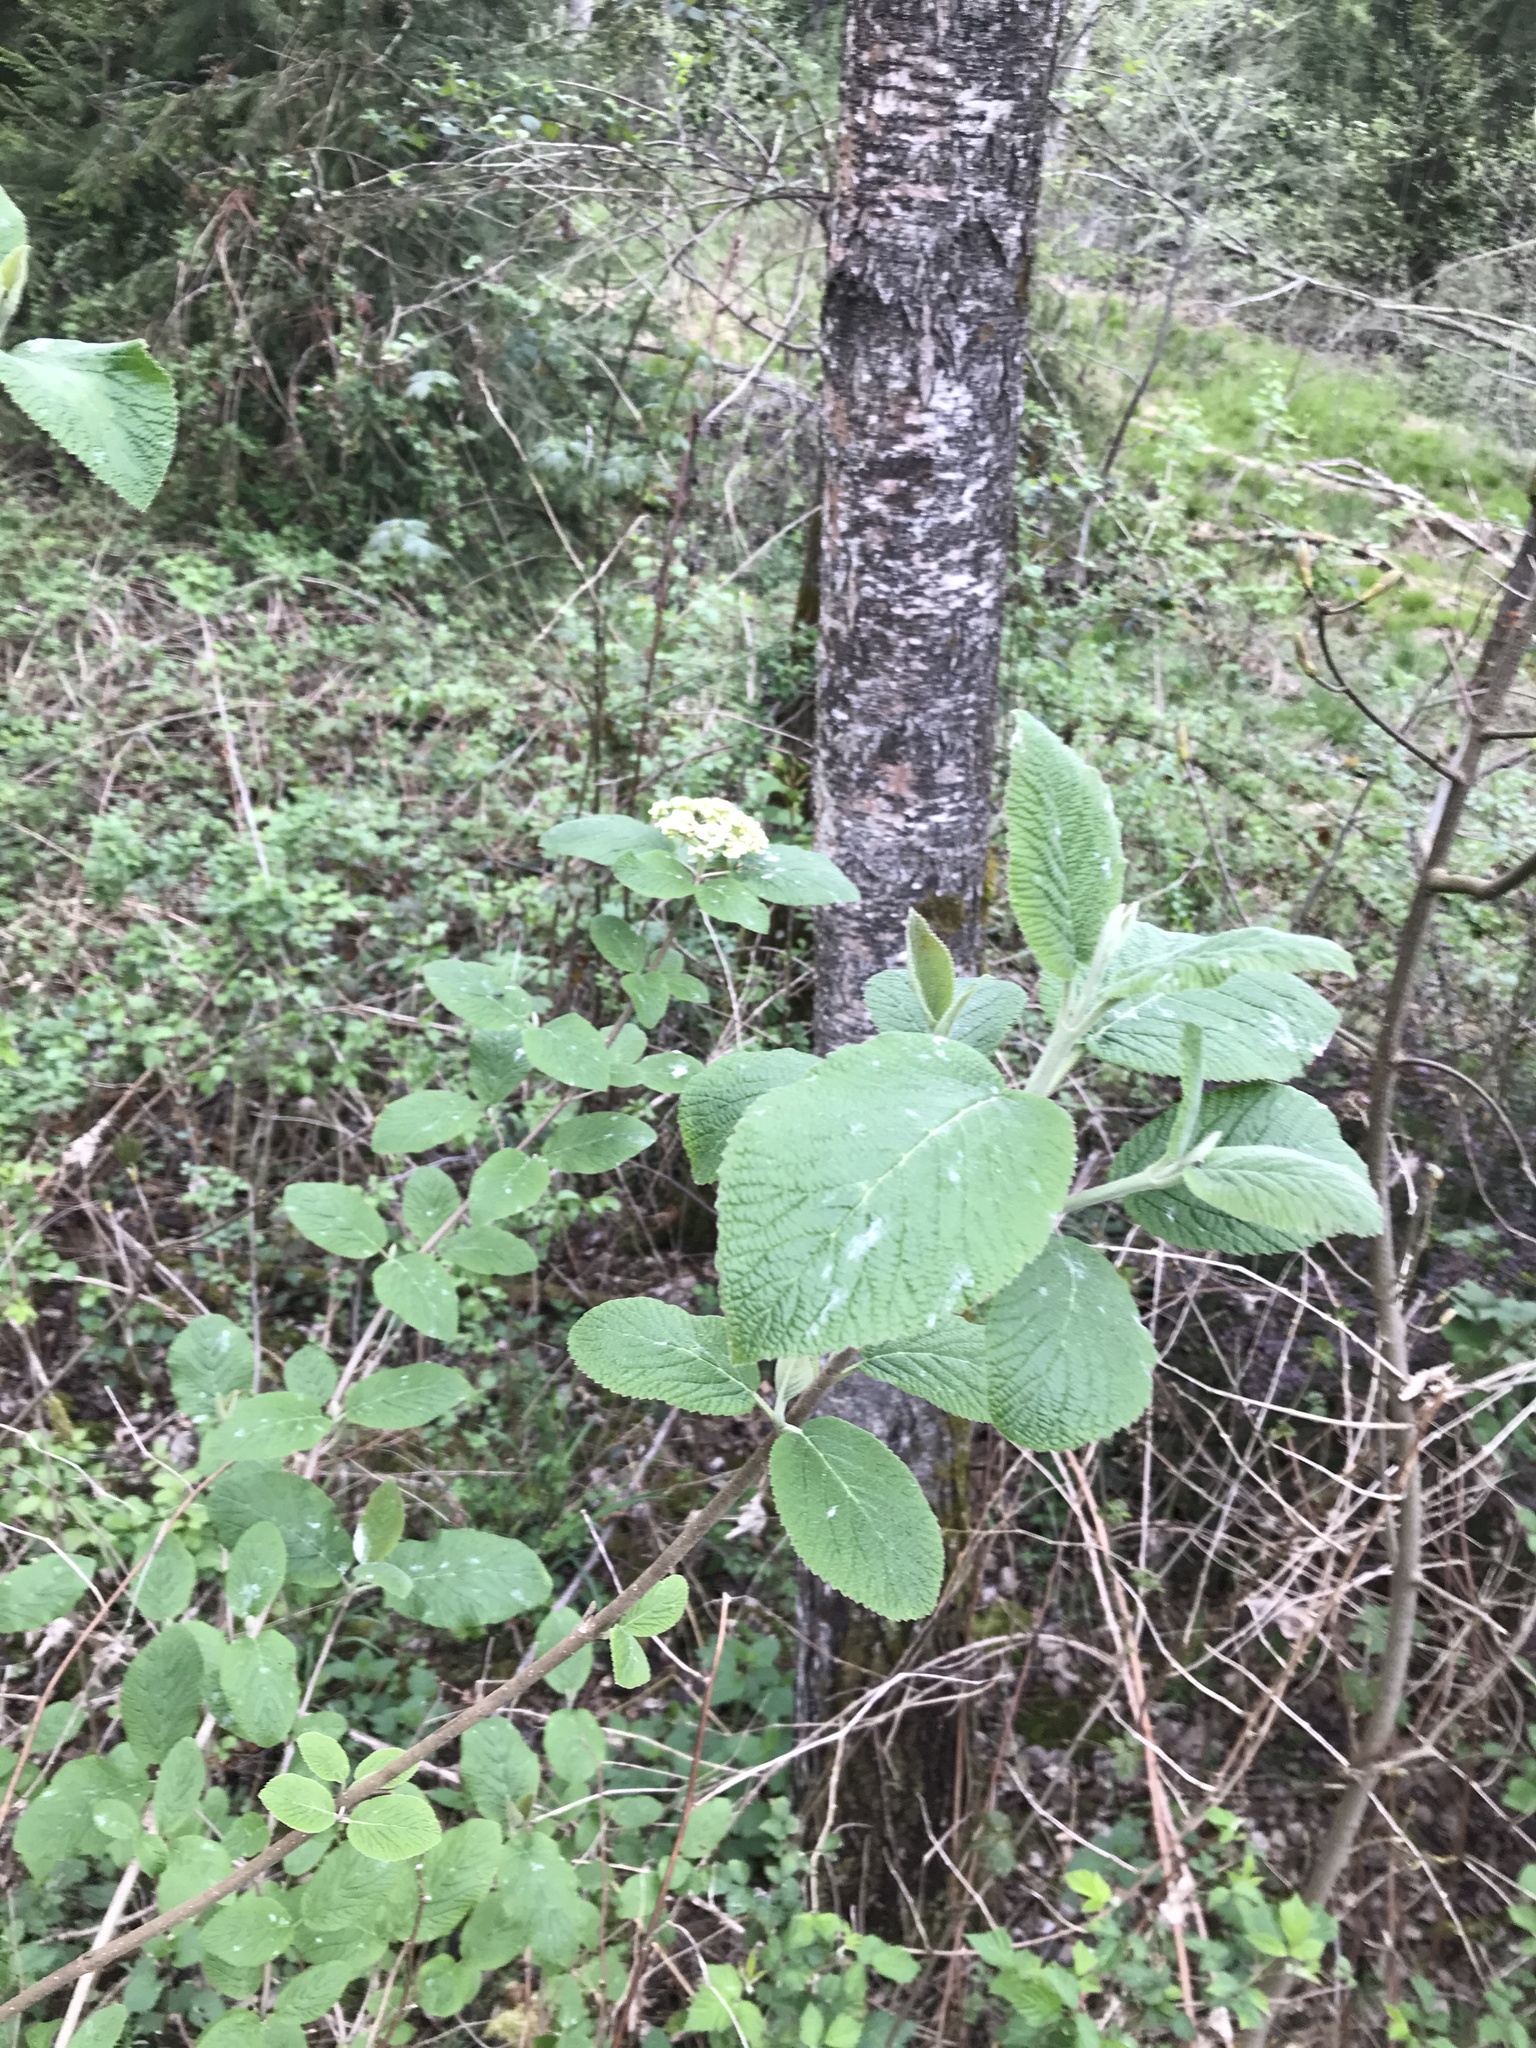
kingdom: Plantae
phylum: Tracheophyta
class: Magnoliopsida
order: Dipsacales
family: Viburnaceae
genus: Viburnum
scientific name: Viburnum lantana
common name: Wayfaring tree
